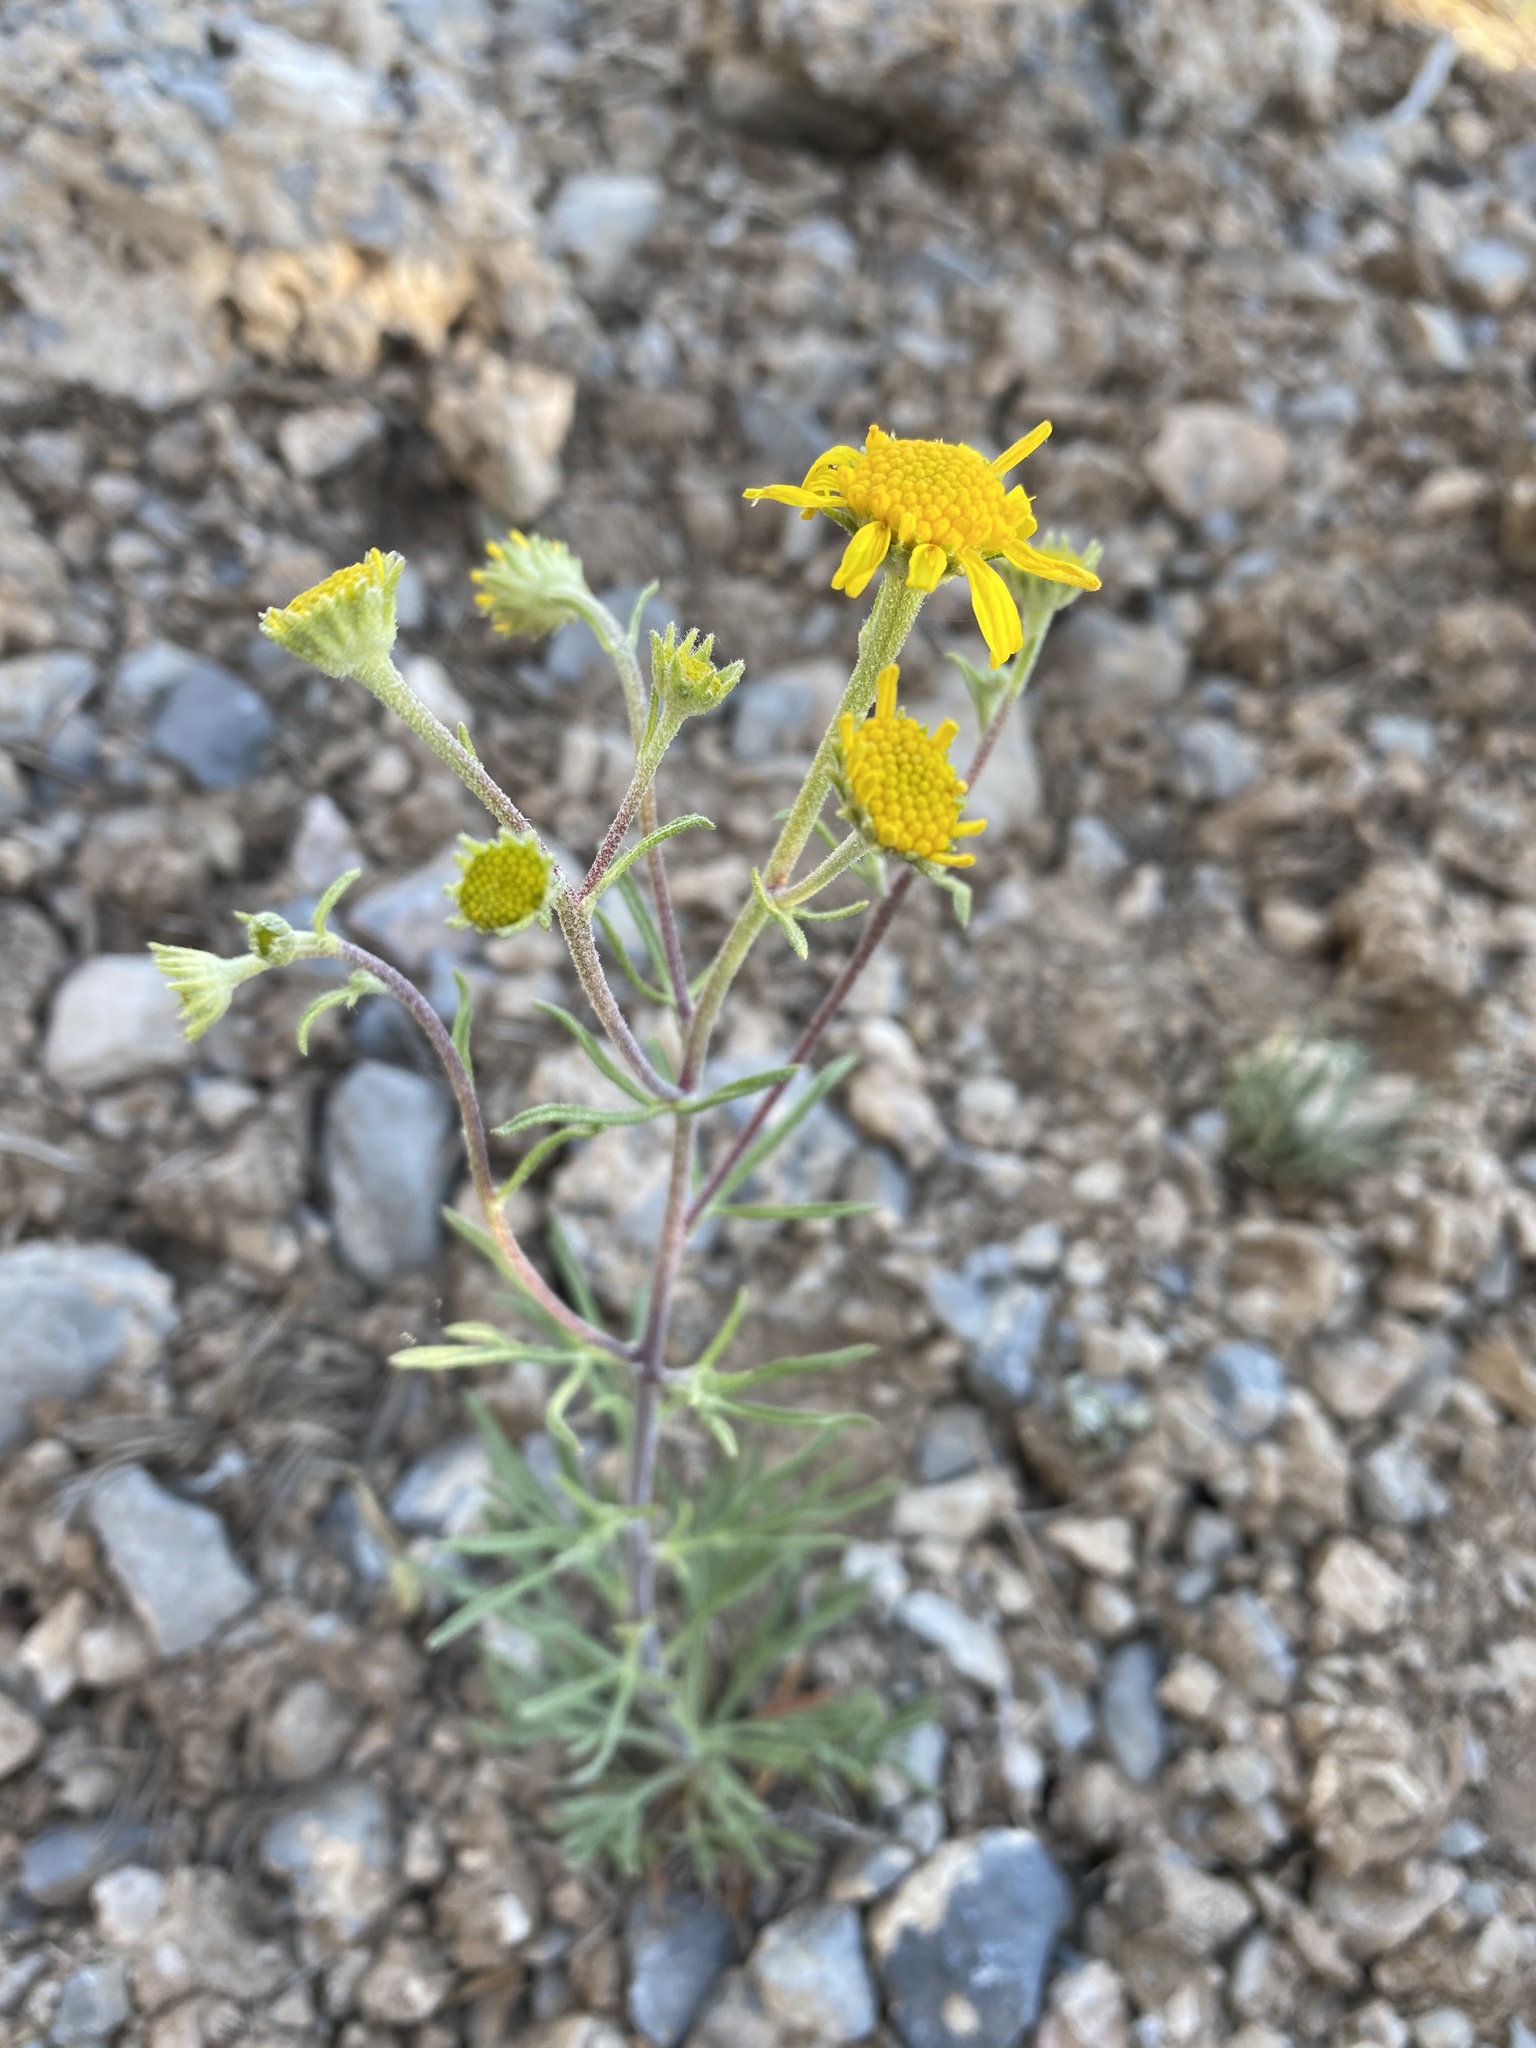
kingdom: Plantae
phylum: Tracheophyta
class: Magnoliopsida
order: Asterales
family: Asteraceae
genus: Hymenoxys
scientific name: Hymenoxys cooperi
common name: Cooper's bitterweed
